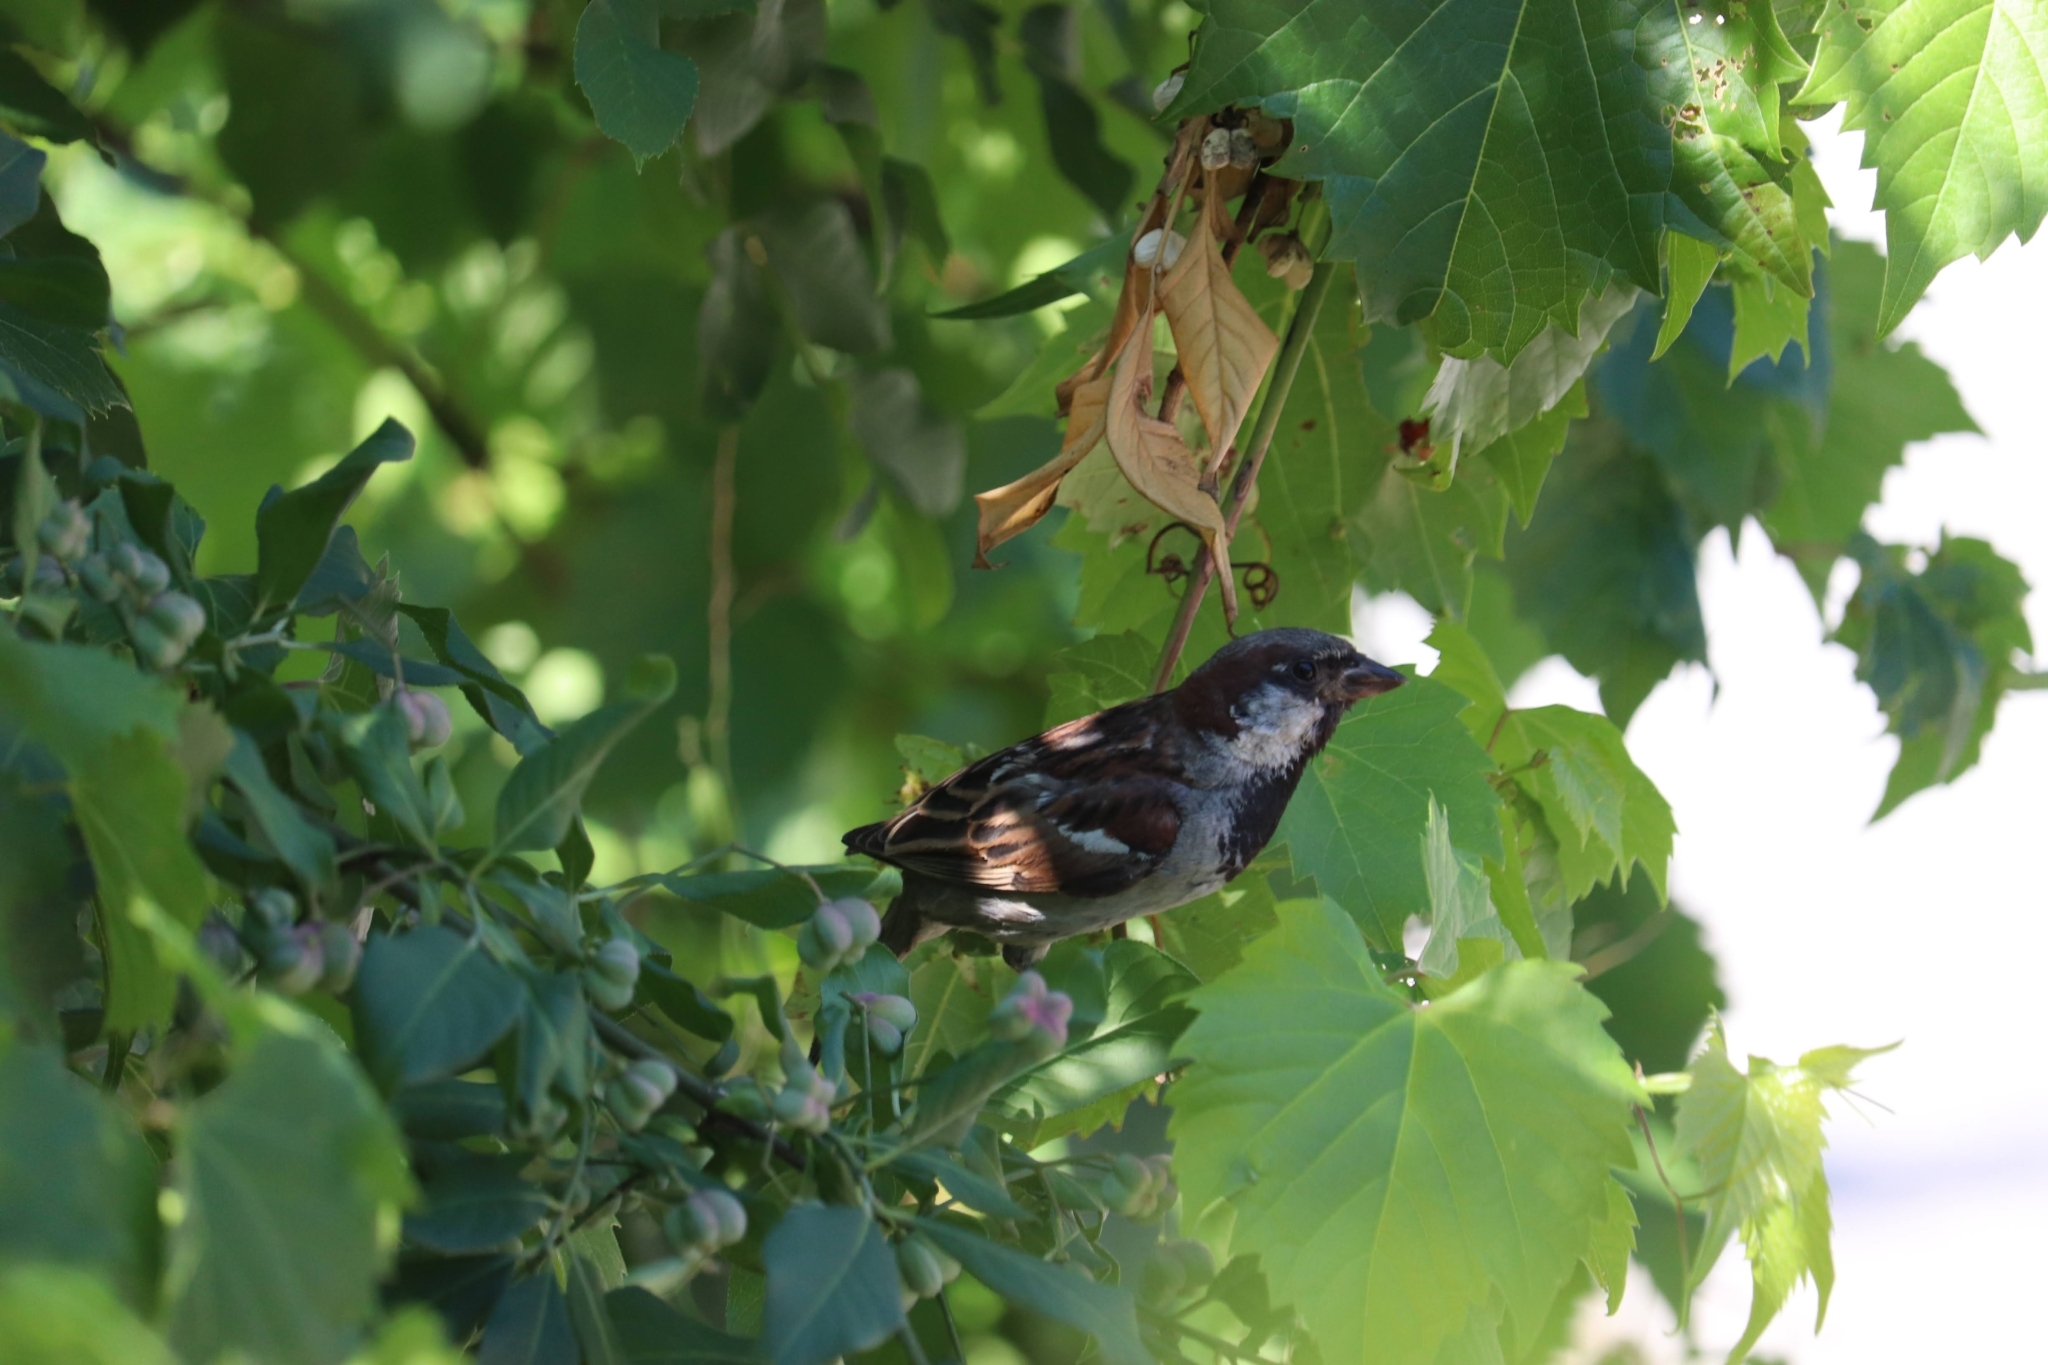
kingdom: Animalia
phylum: Chordata
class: Aves
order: Passeriformes
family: Passeridae
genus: Passer
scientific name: Passer domesticus
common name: House sparrow
